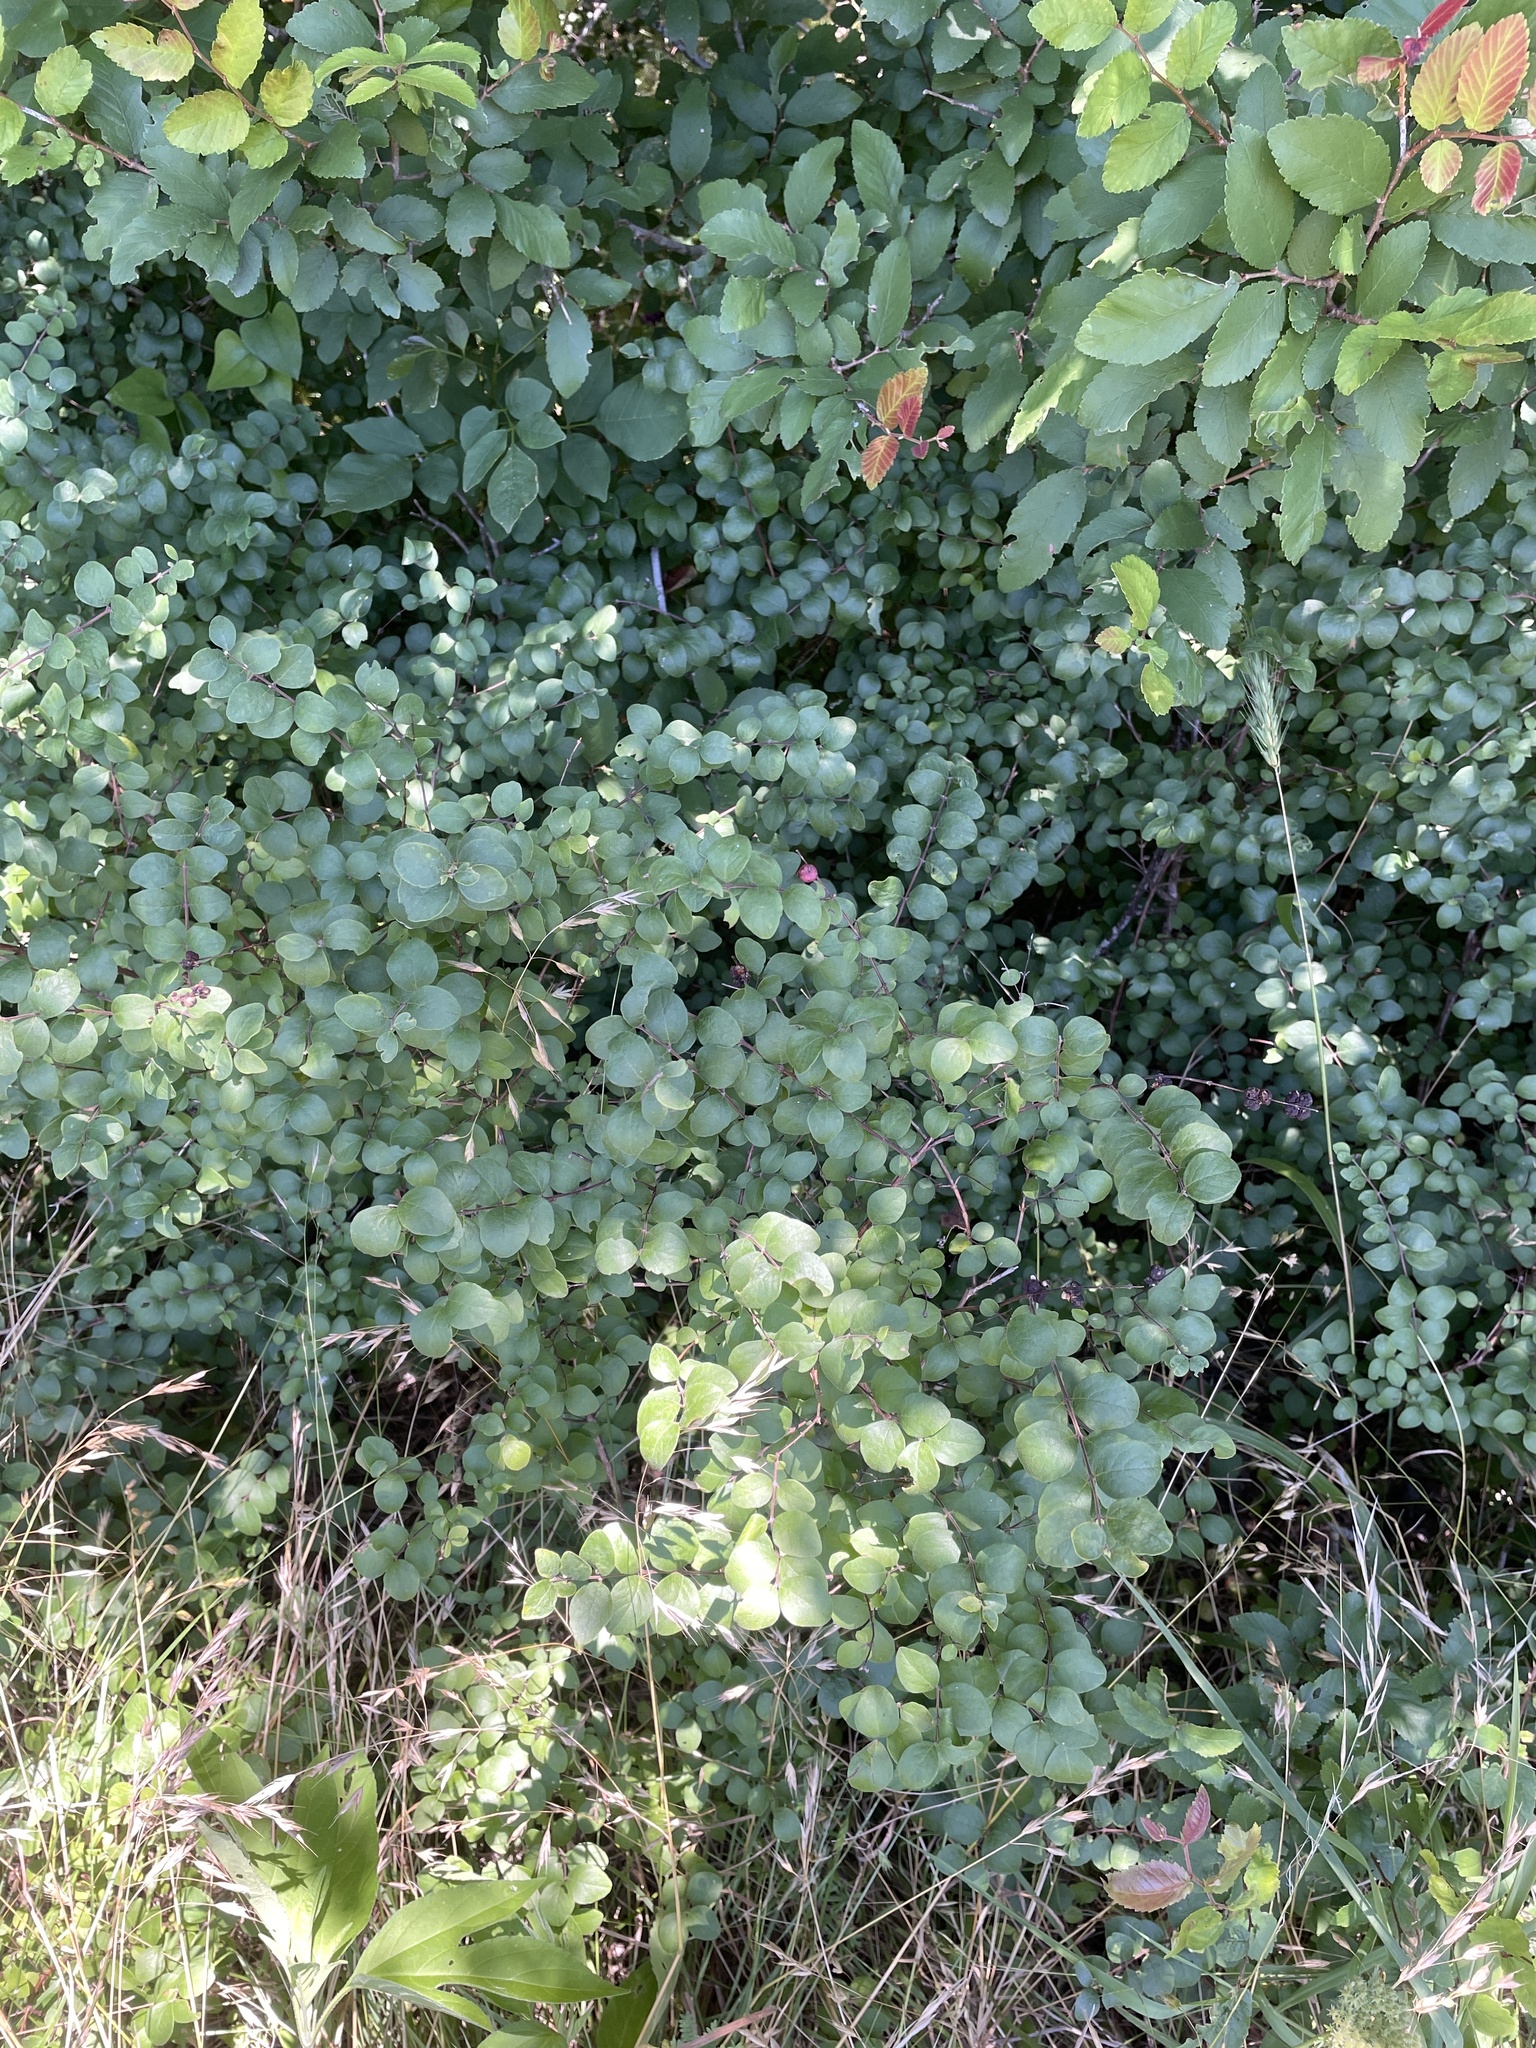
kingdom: Plantae
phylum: Tracheophyta
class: Magnoliopsida
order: Dipsacales
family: Caprifoliaceae
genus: Symphoricarpos
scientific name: Symphoricarpos orbiculatus
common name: Coralberry
